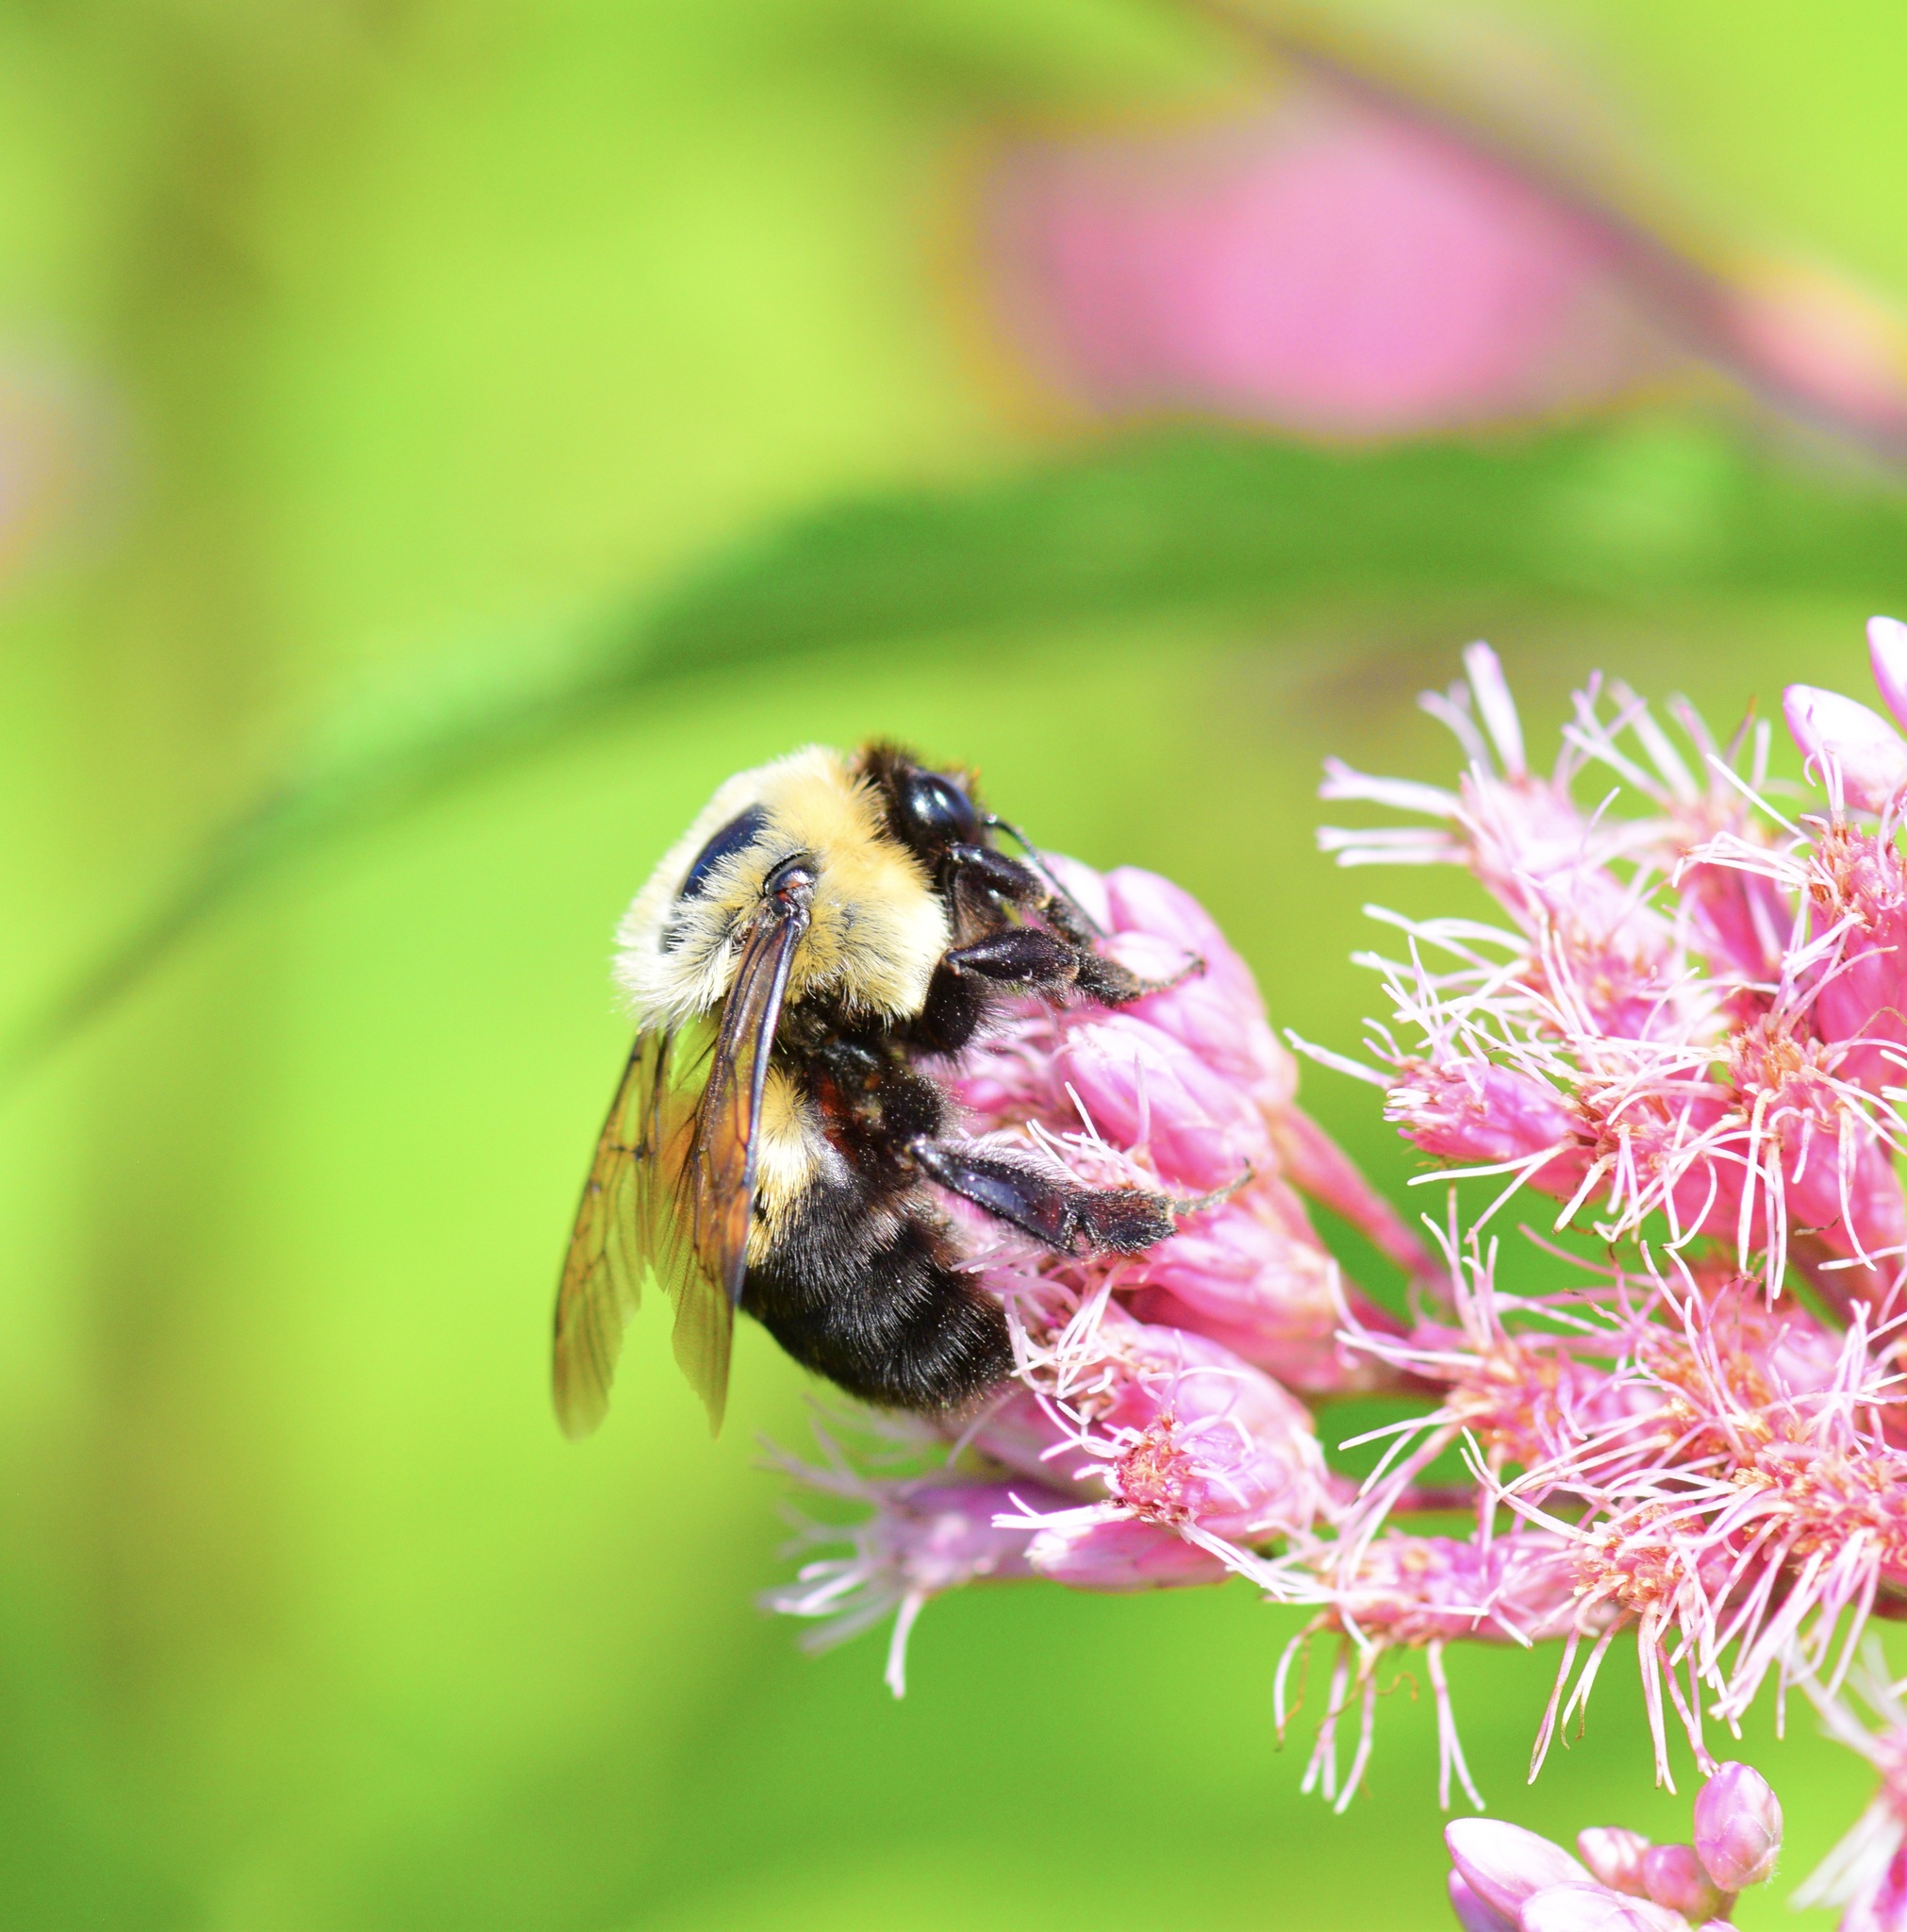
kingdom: Animalia
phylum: Arthropoda
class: Insecta
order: Hymenoptera
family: Apidae
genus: Bombus
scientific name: Bombus griseocollis
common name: Brown-belted bumble bee
